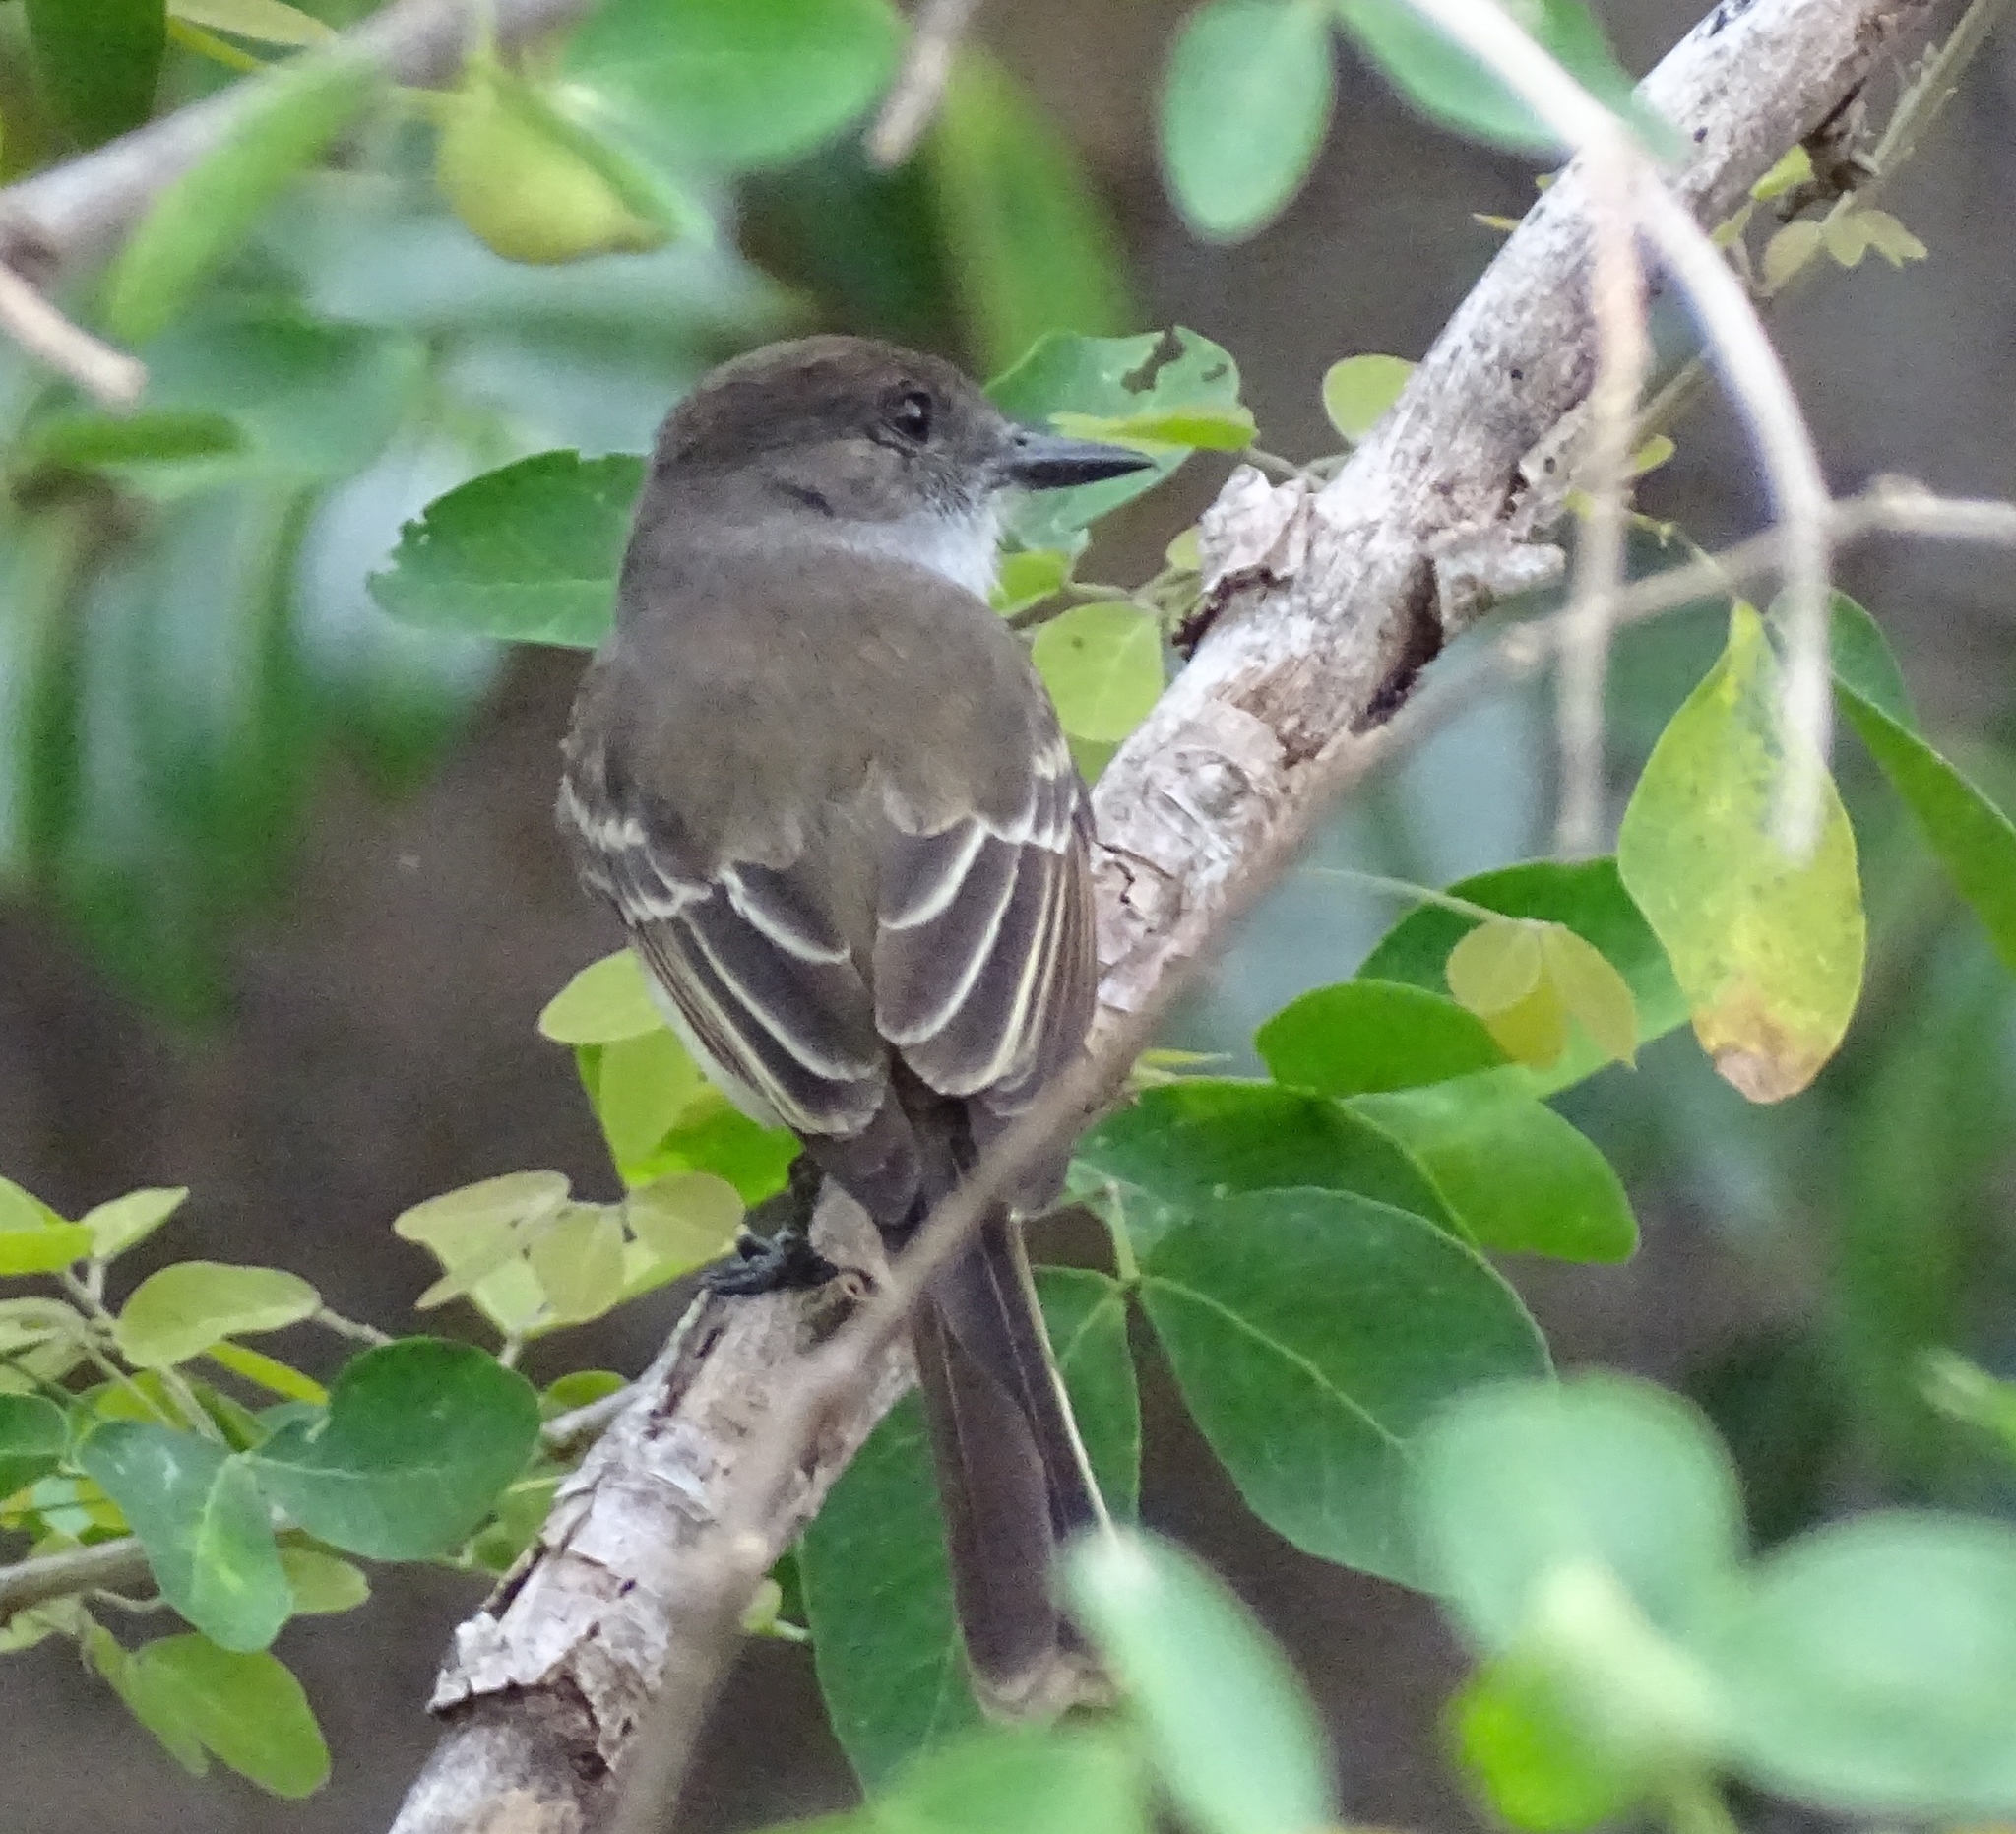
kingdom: Animalia
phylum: Chordata
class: Aves
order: Passeriformes
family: Tyrannidae
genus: Myiarchus
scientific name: Myiarchus antillarum
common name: Puerto rican flycatcher
